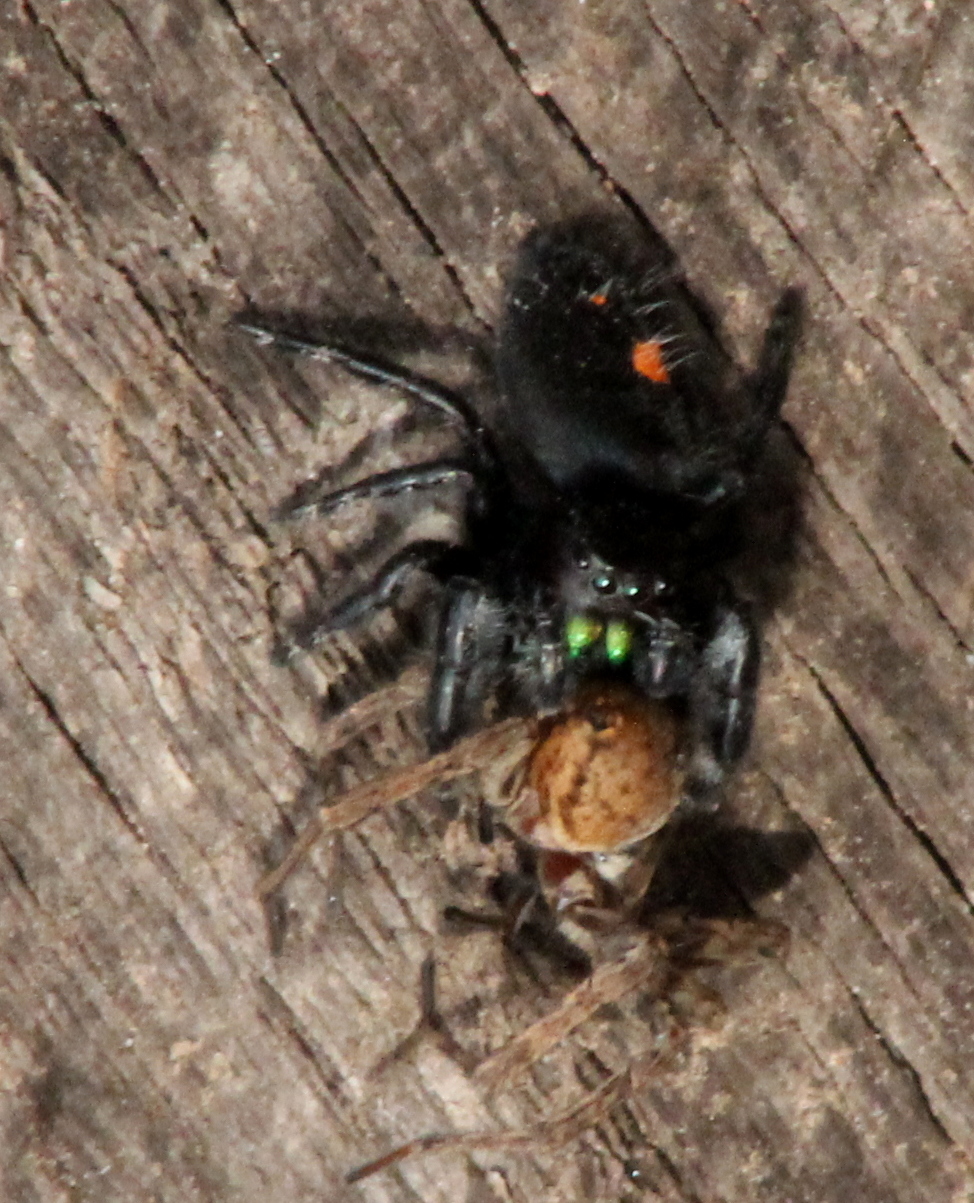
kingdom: Animalia
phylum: Arthropoda
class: Arachnida
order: Araneae
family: Salticidae
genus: Phidippus
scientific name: Phidippus audax
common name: Bold jumper
